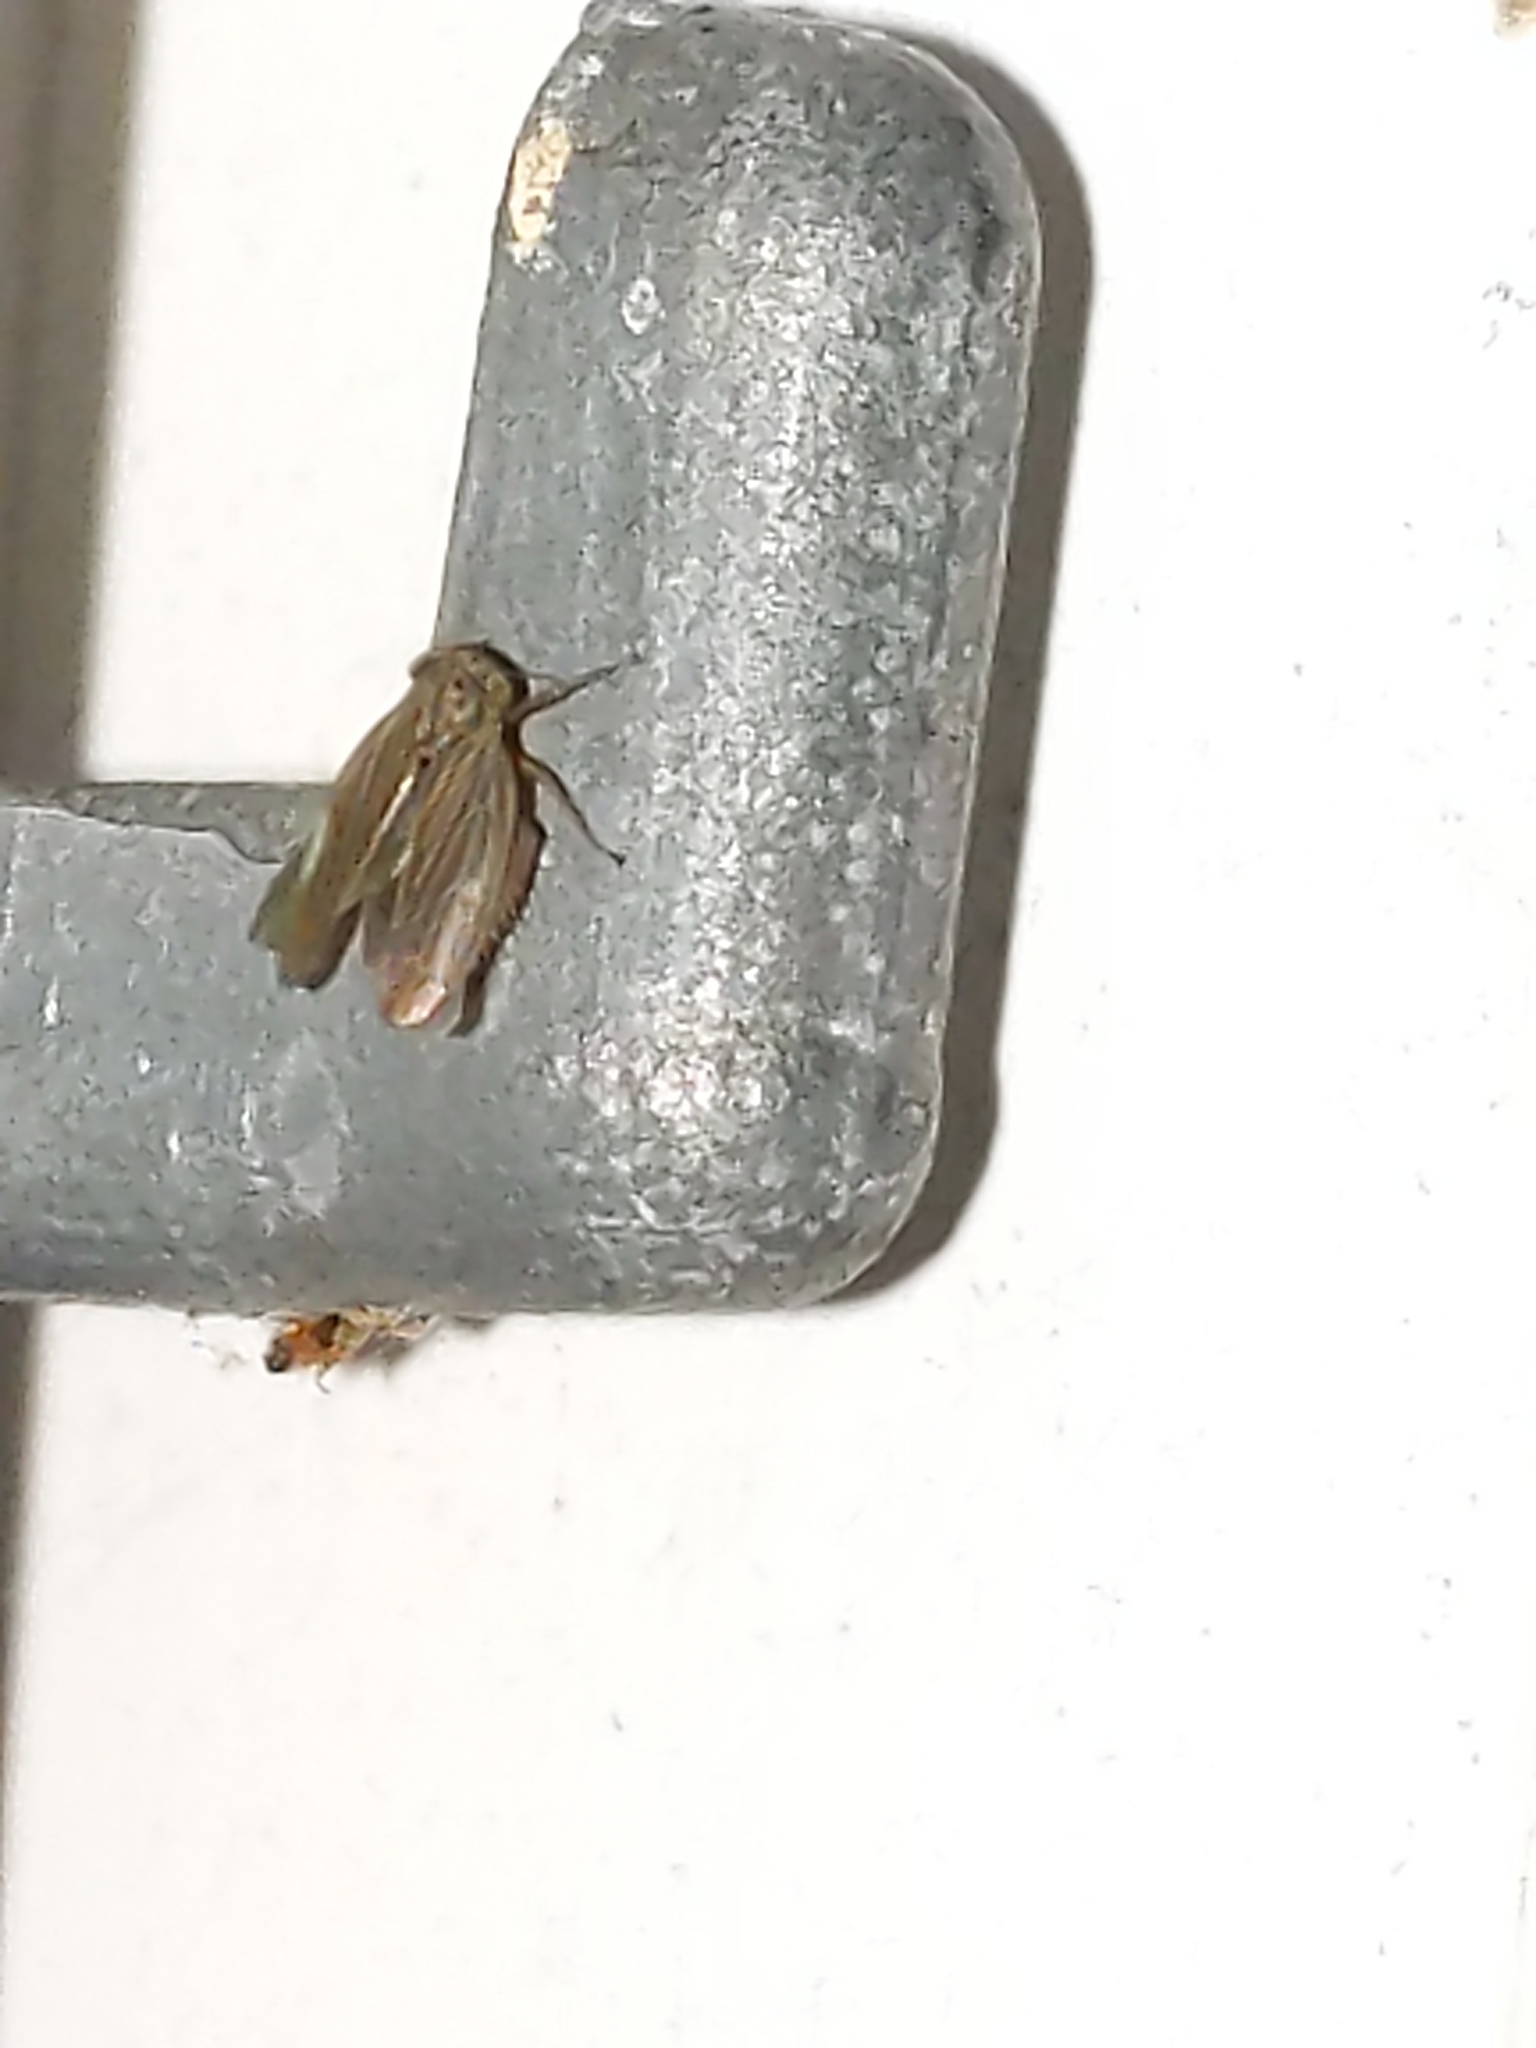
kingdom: Animalia
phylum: Arthropoda
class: Insecta
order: Hemiptera
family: Cicadellidae
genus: Agallia
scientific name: Agallia
